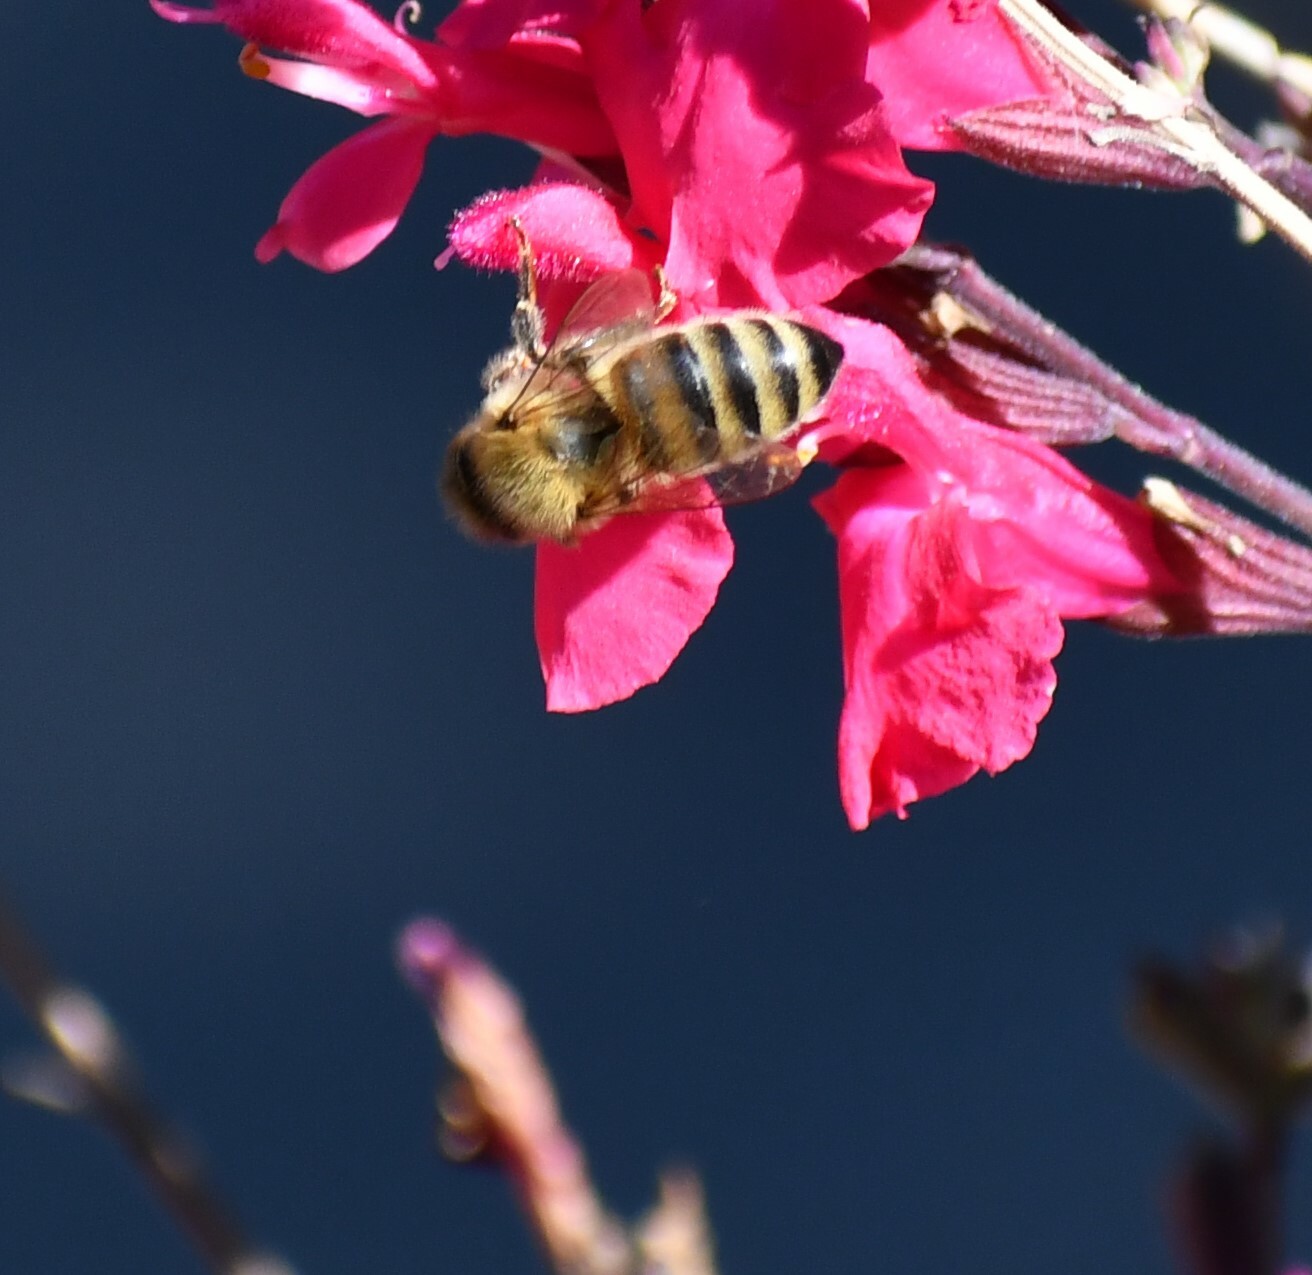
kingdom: Animalia
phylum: Arthropoda
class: Insecta
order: Hymenoptera
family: Apidae
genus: Apis
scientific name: Apis mellifera
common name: Honey bee
